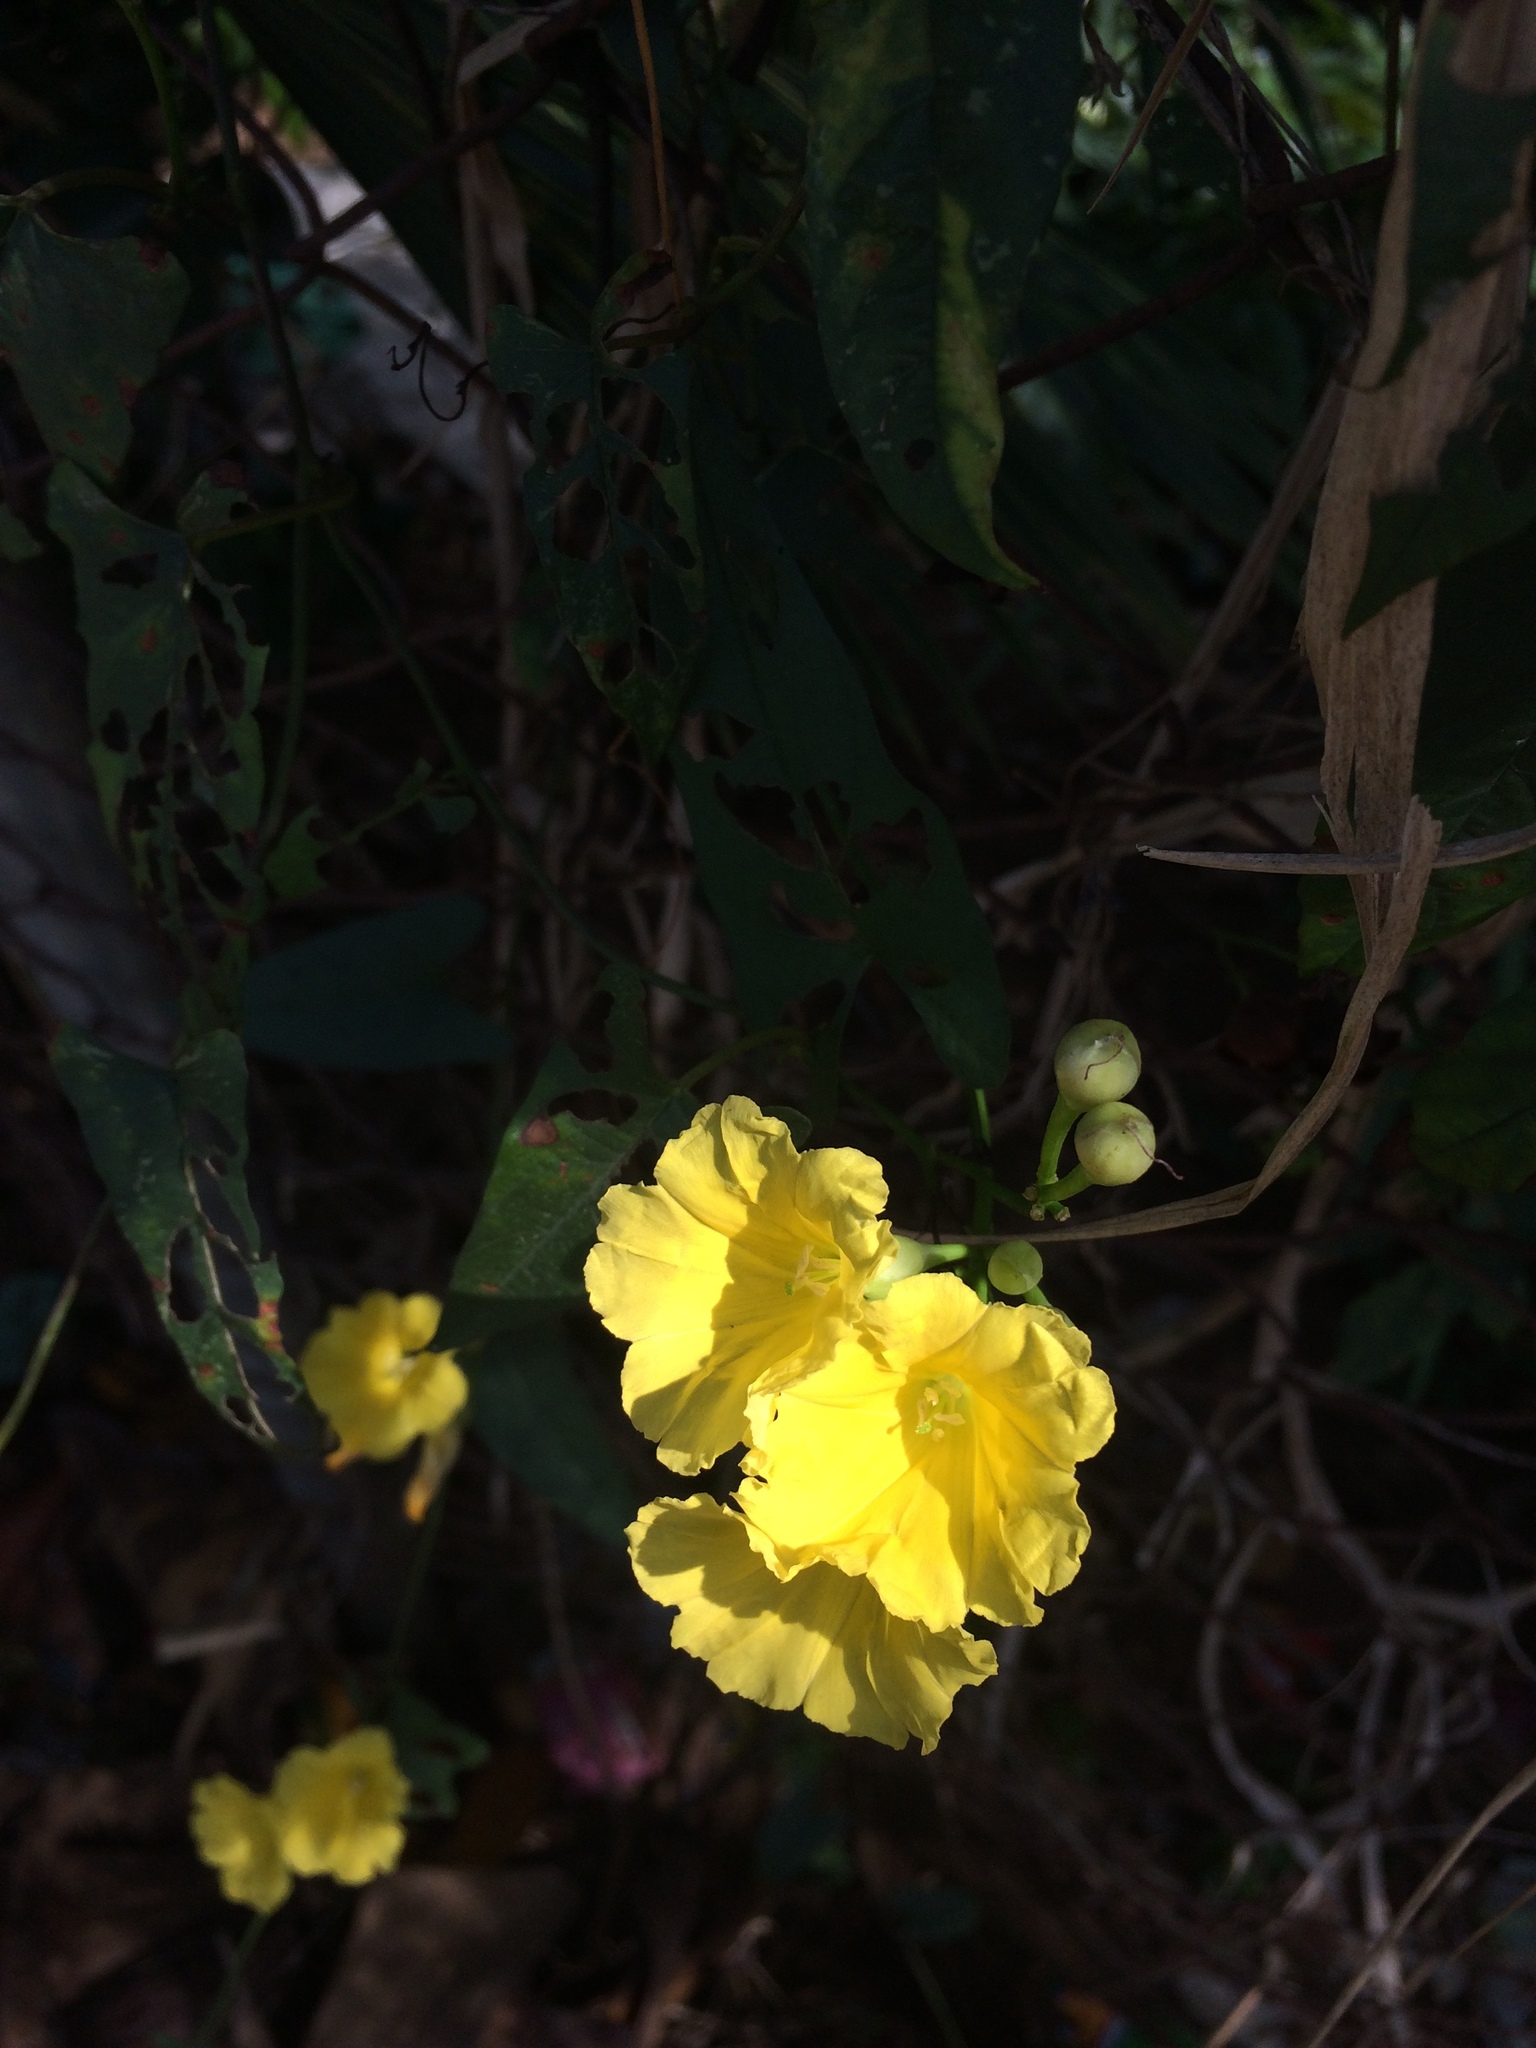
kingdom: Plantae
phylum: Tracheophyta
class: Magnoliopsida
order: Solanales
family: Convolvulaceae
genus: Camonea
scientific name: Camonea umbellata
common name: Hogvine
